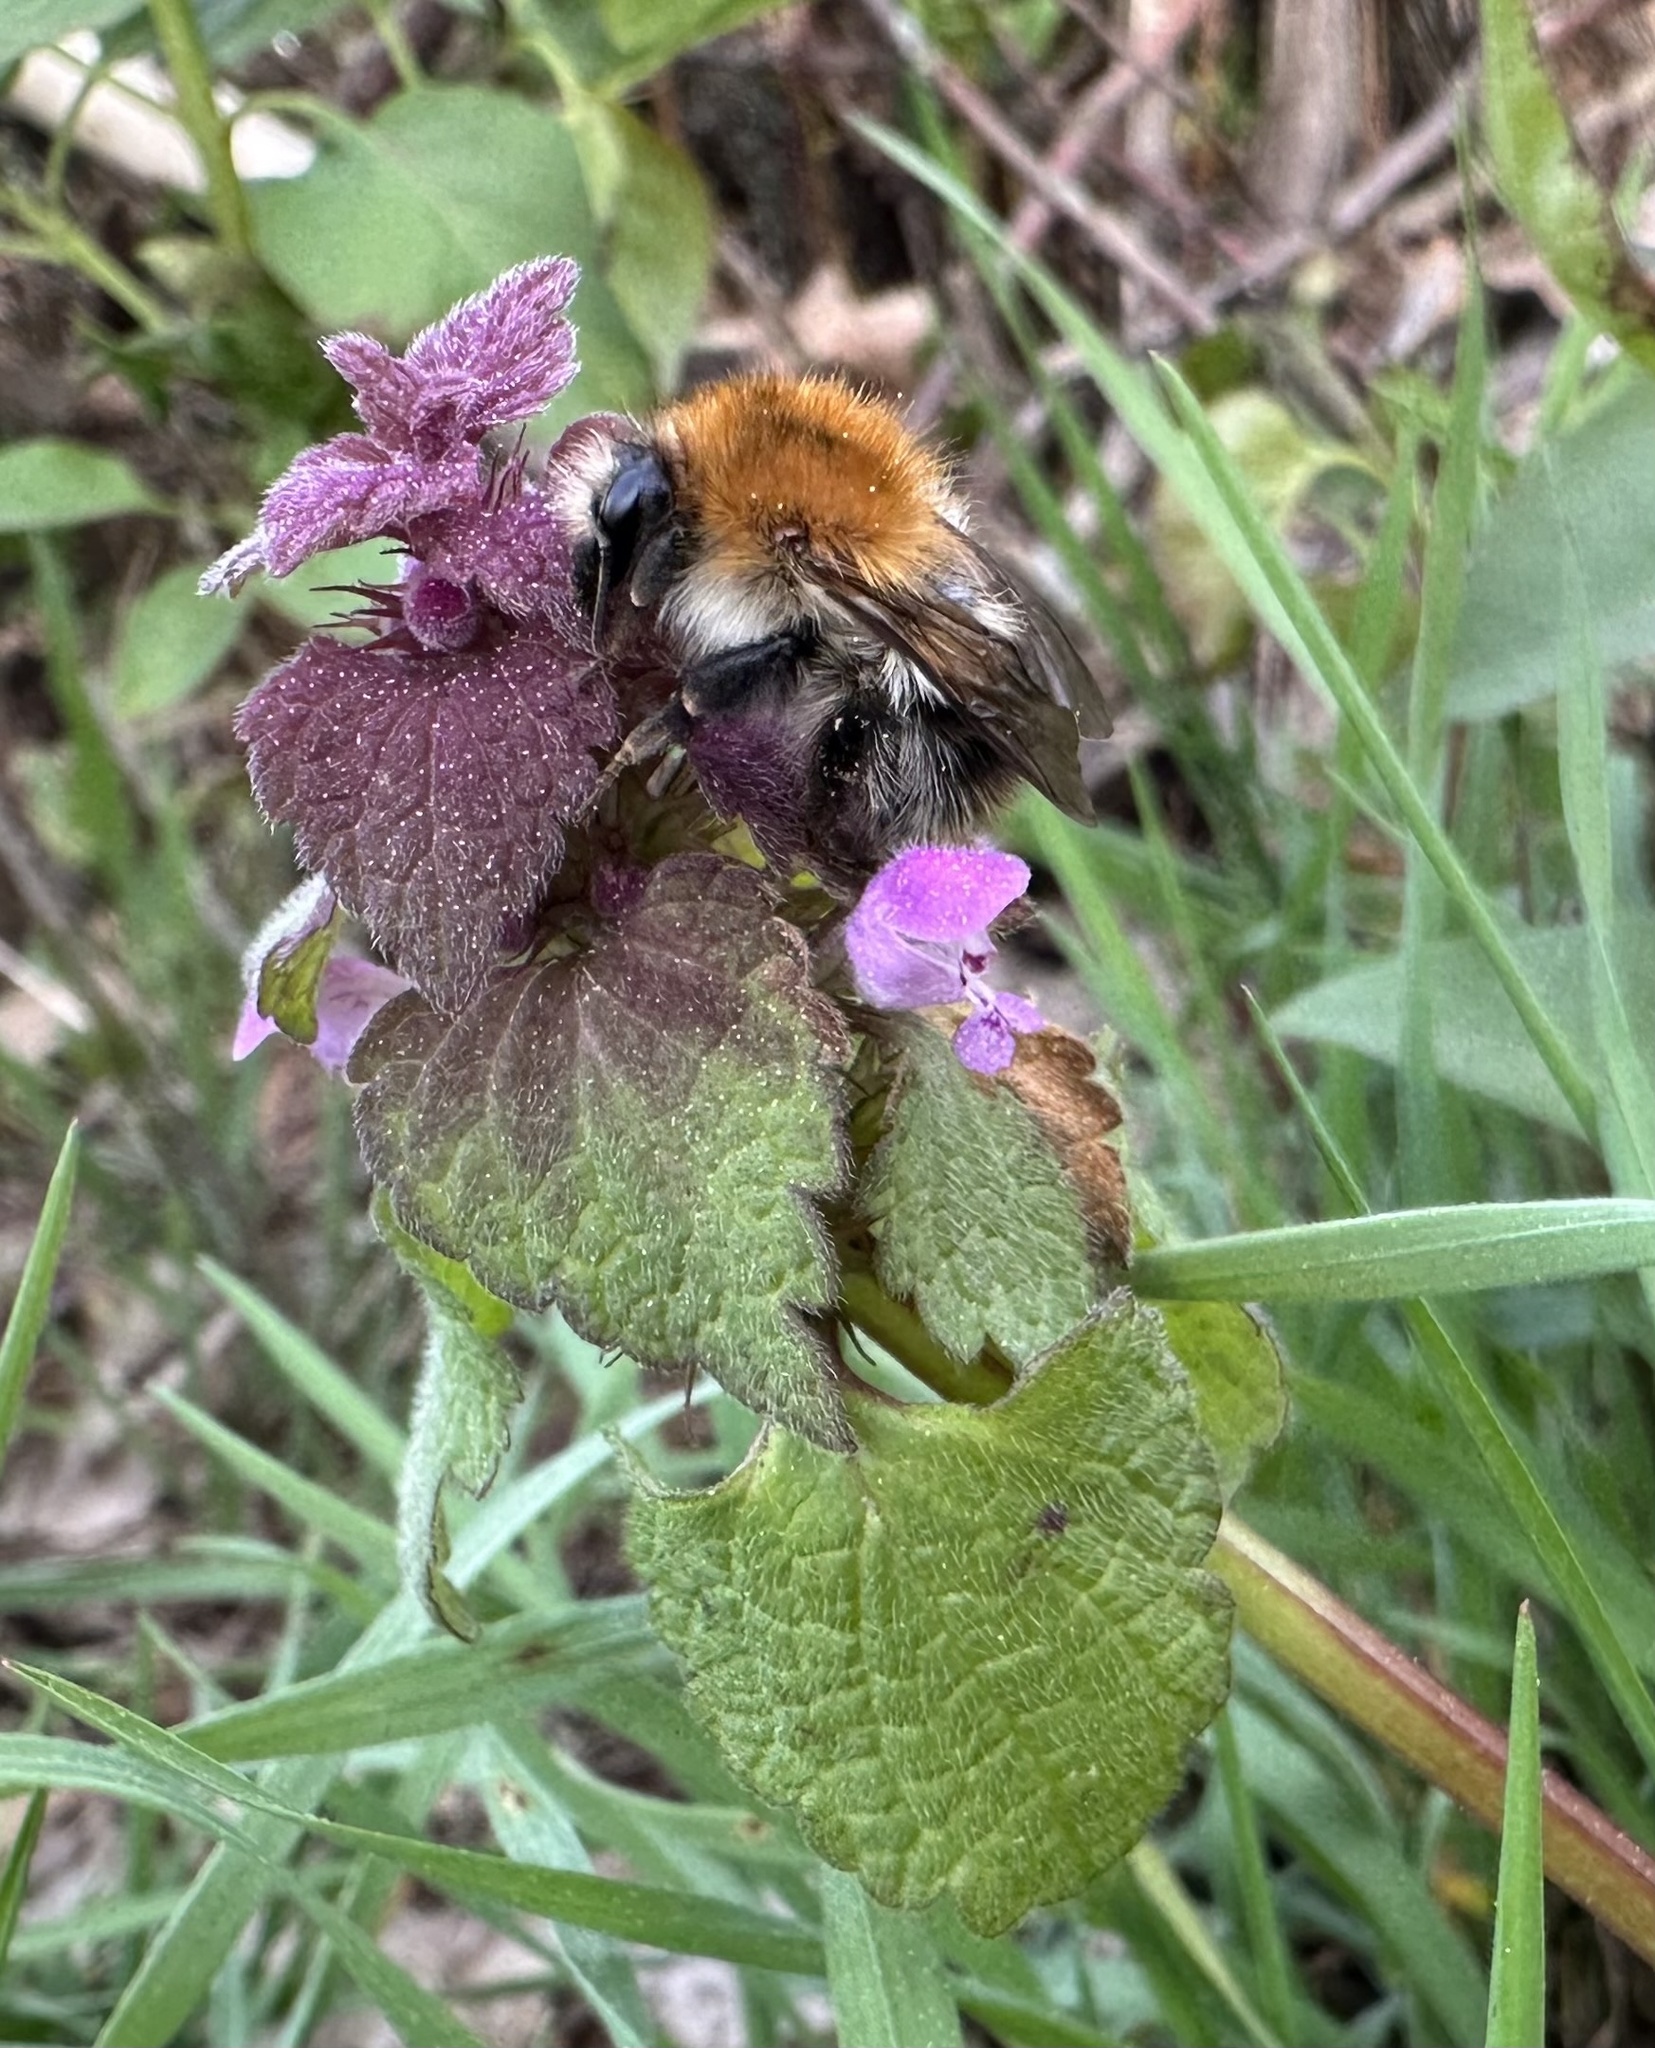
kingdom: Animalia
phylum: Arthropoda
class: Insecta
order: Hymenoptera
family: Apidae
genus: Bombus
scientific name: Bombus pascuorum
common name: Common carder bee
